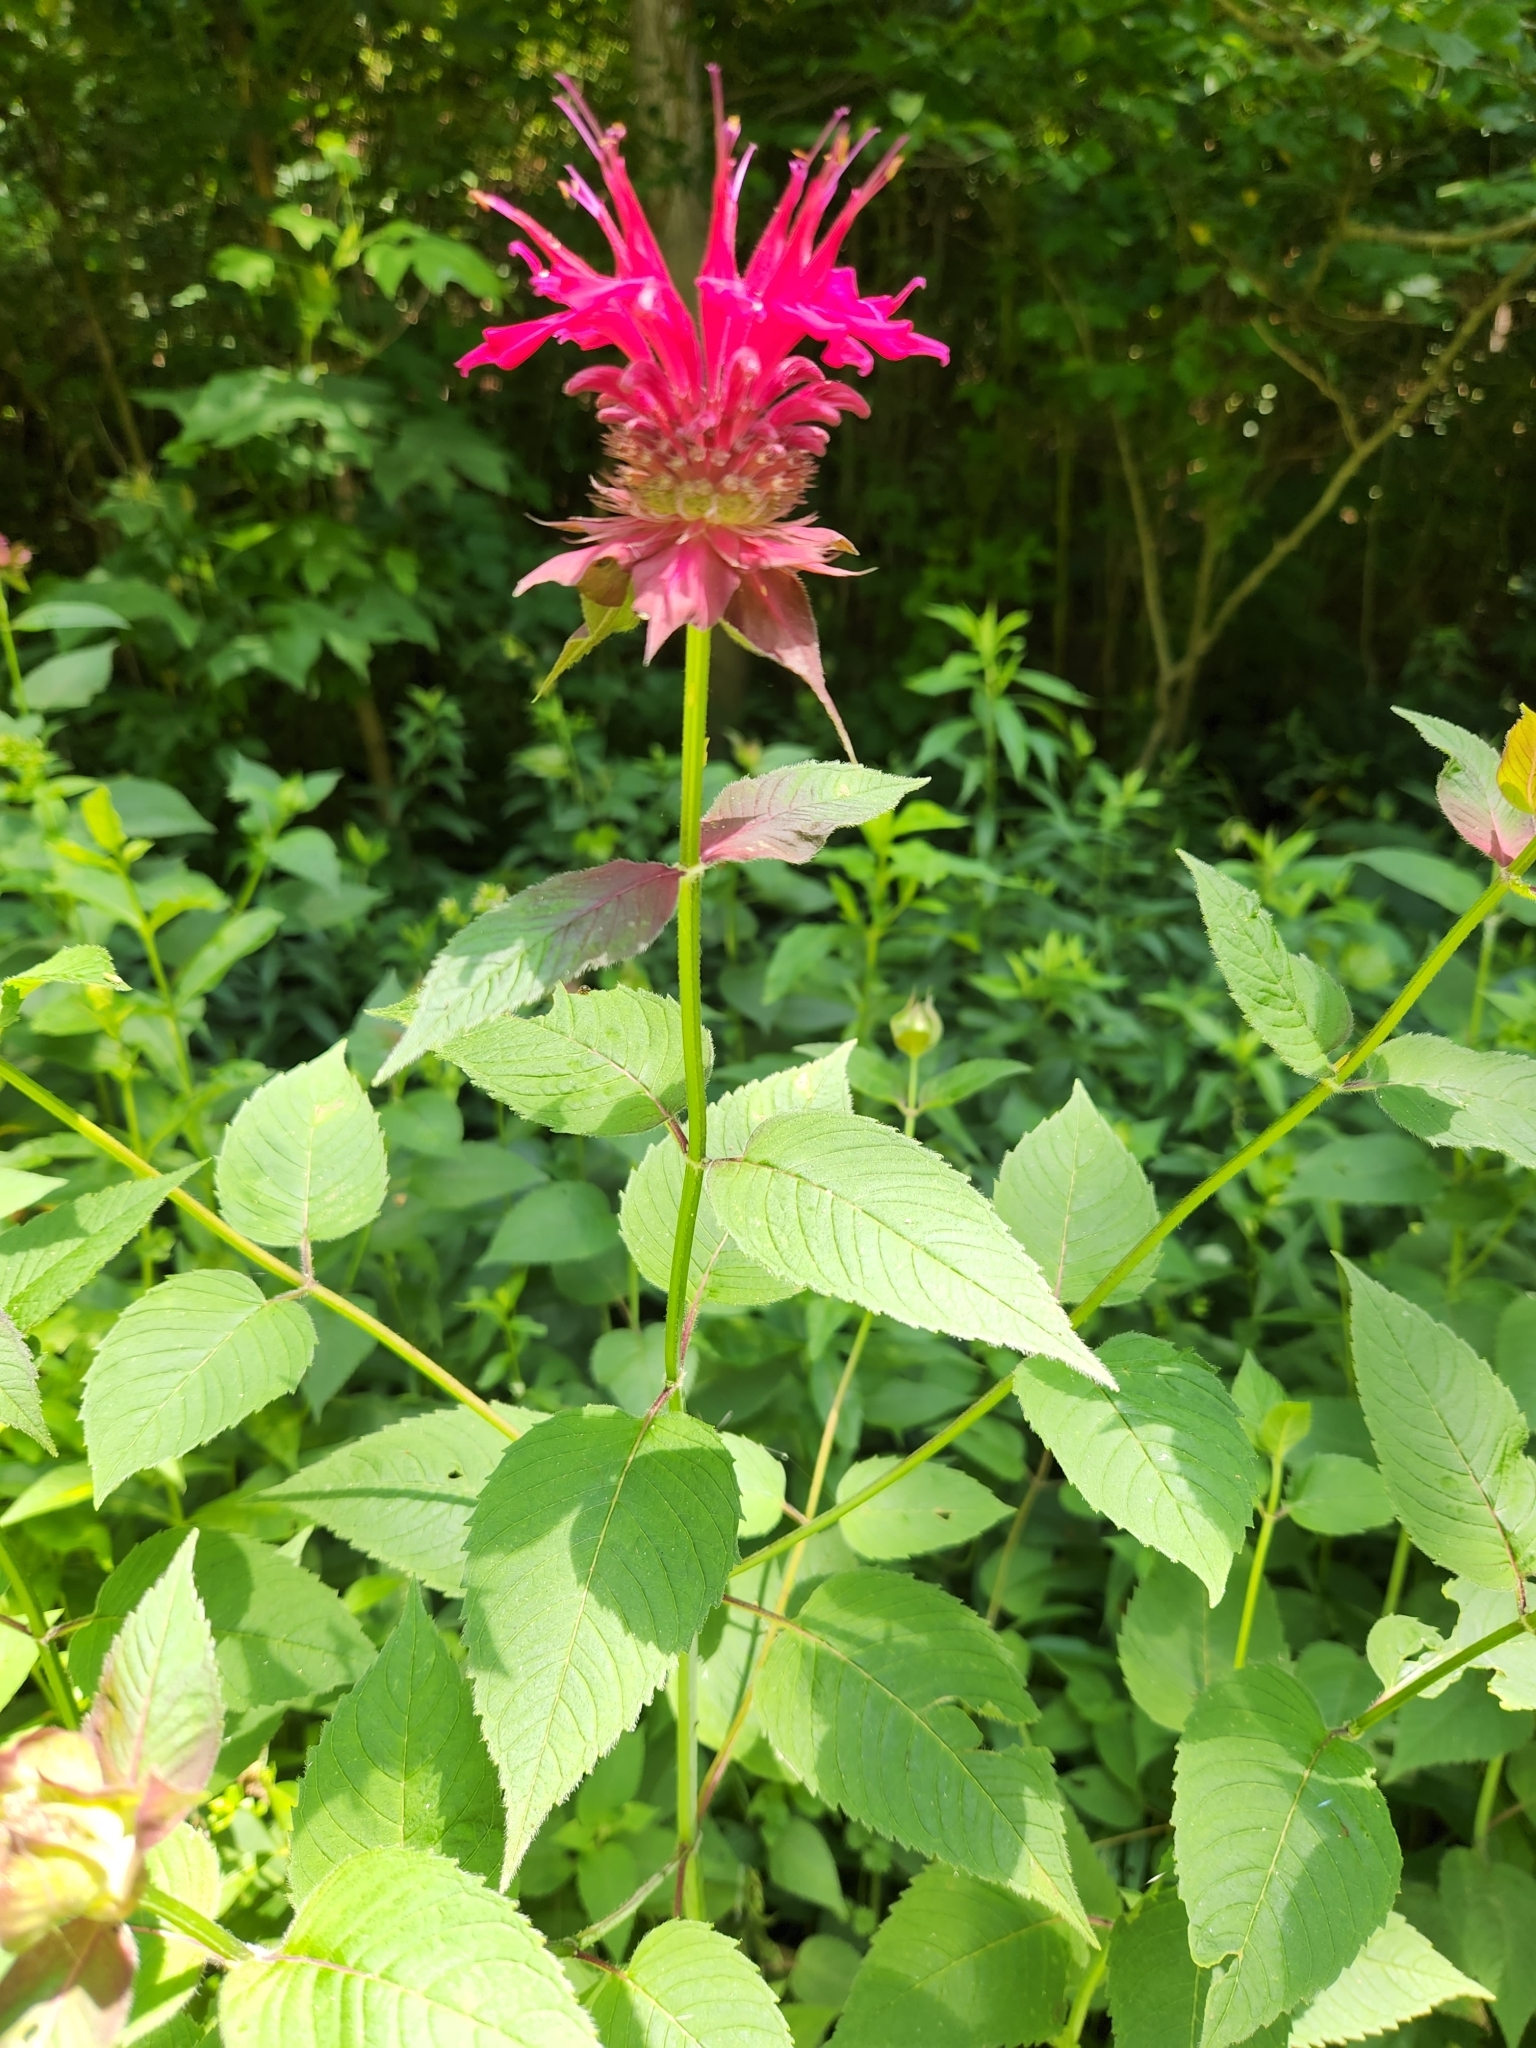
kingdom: Plantae
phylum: Tracheophyta
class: Magnoliopsida
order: Lamiales
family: Lamiaceae
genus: Monarda
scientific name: Monarda didyma
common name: Beebalm
